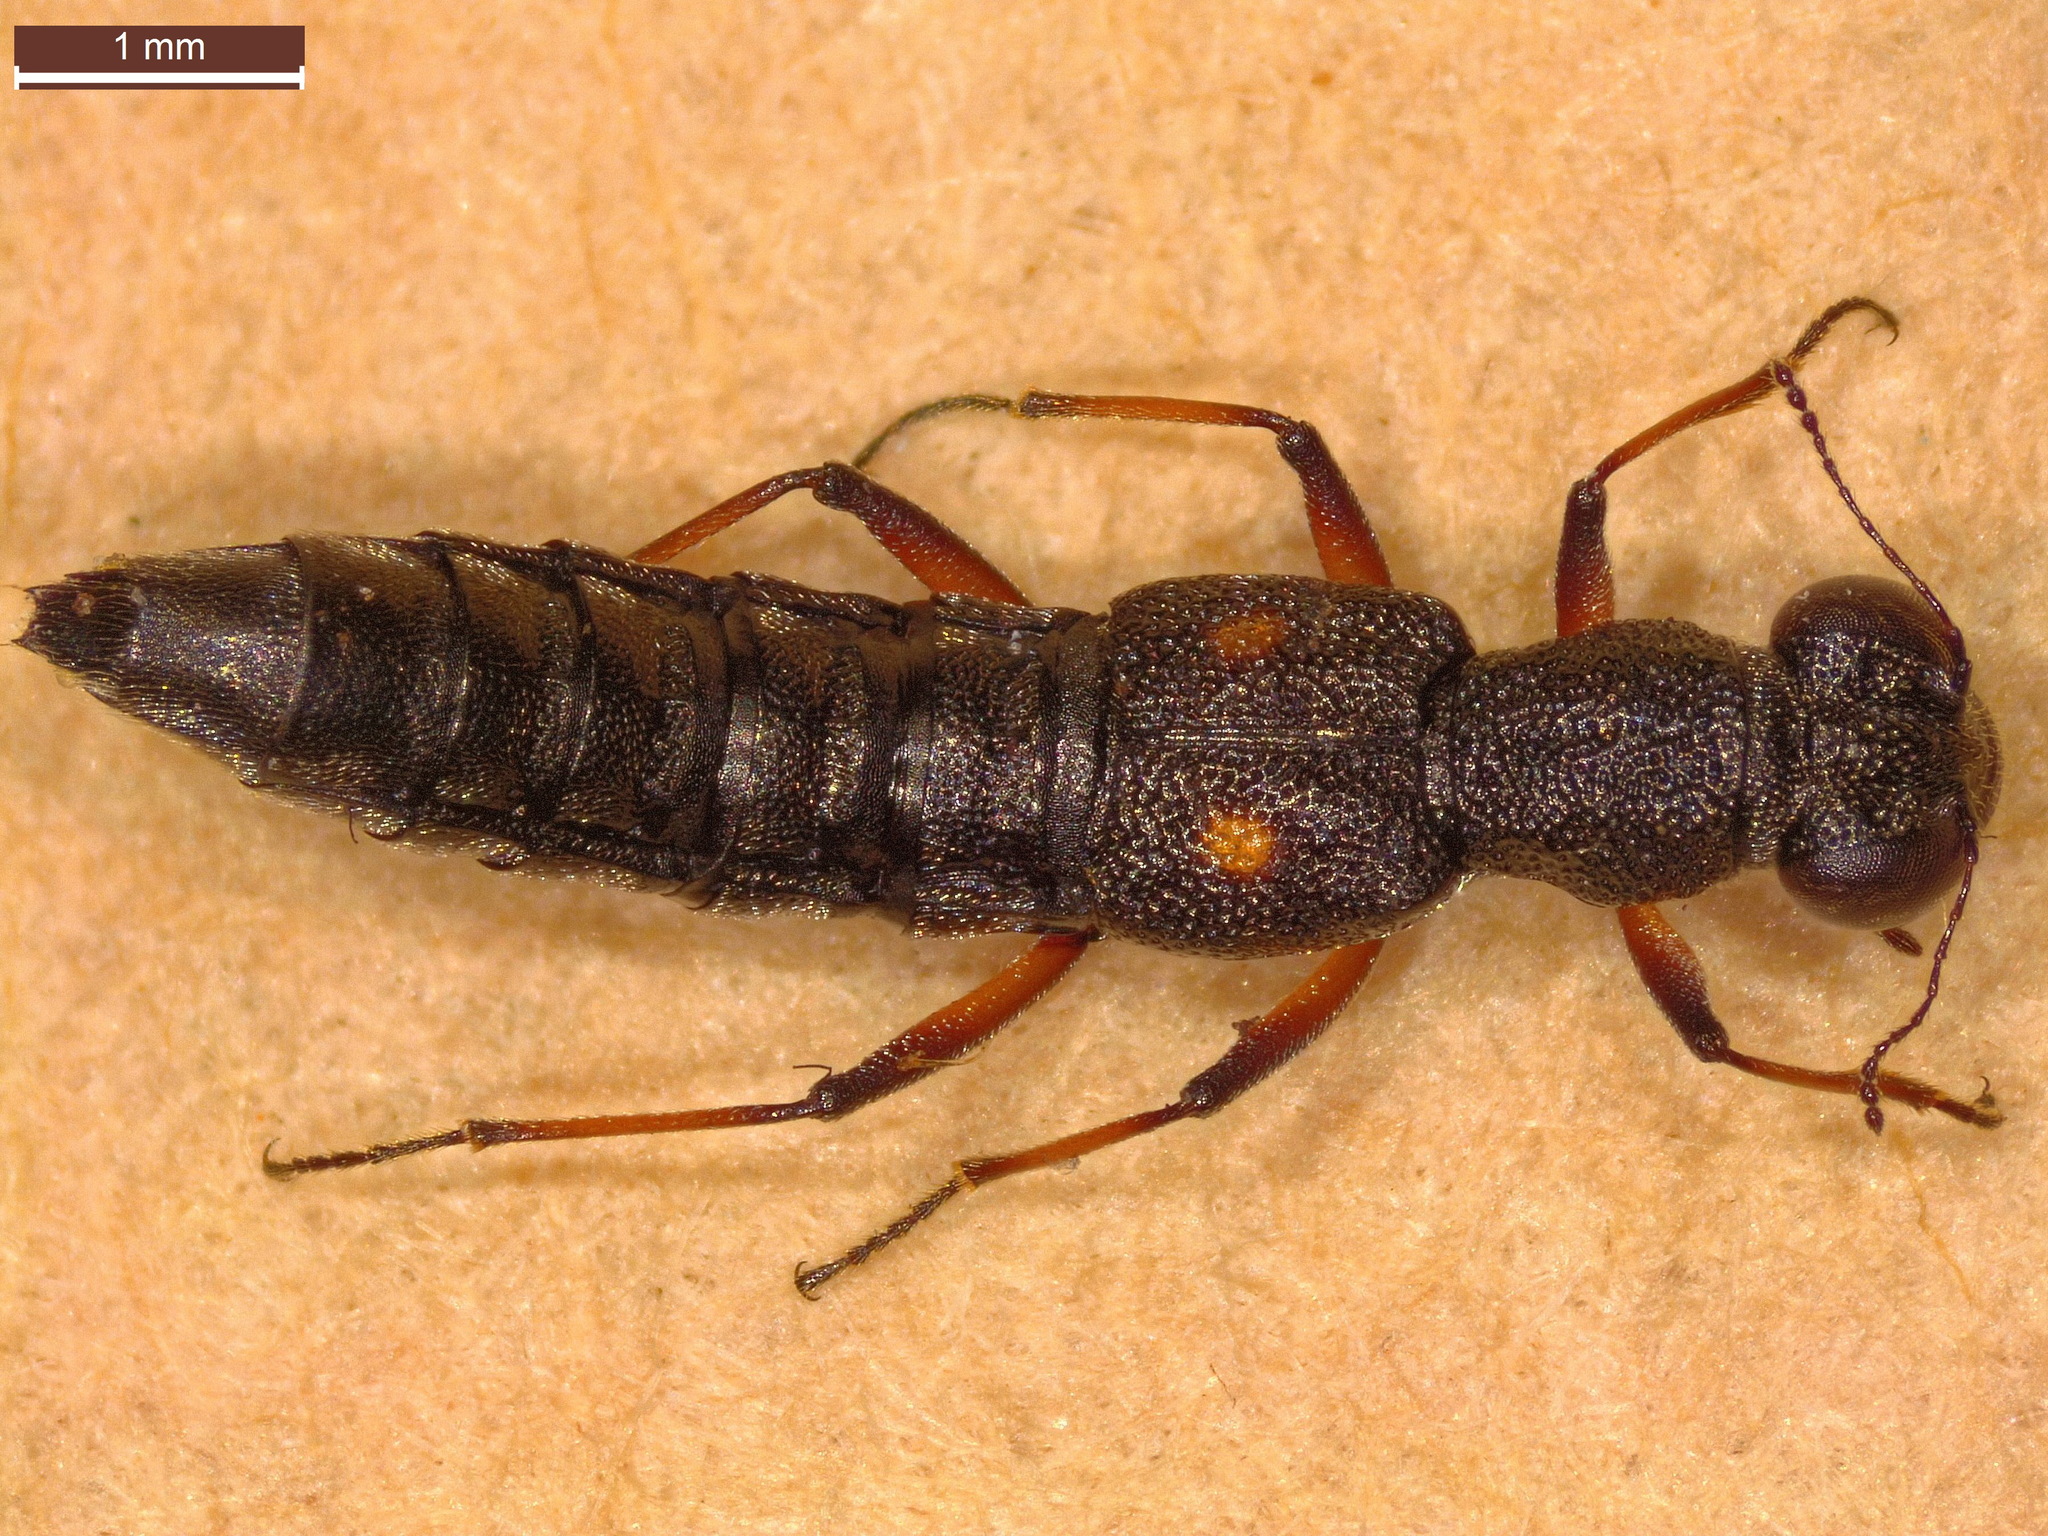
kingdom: Animalia
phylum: Arthropoda
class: Insecta
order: Coleoptera
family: Staphylinidae
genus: Stenus
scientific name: Stenus bimaculatus
